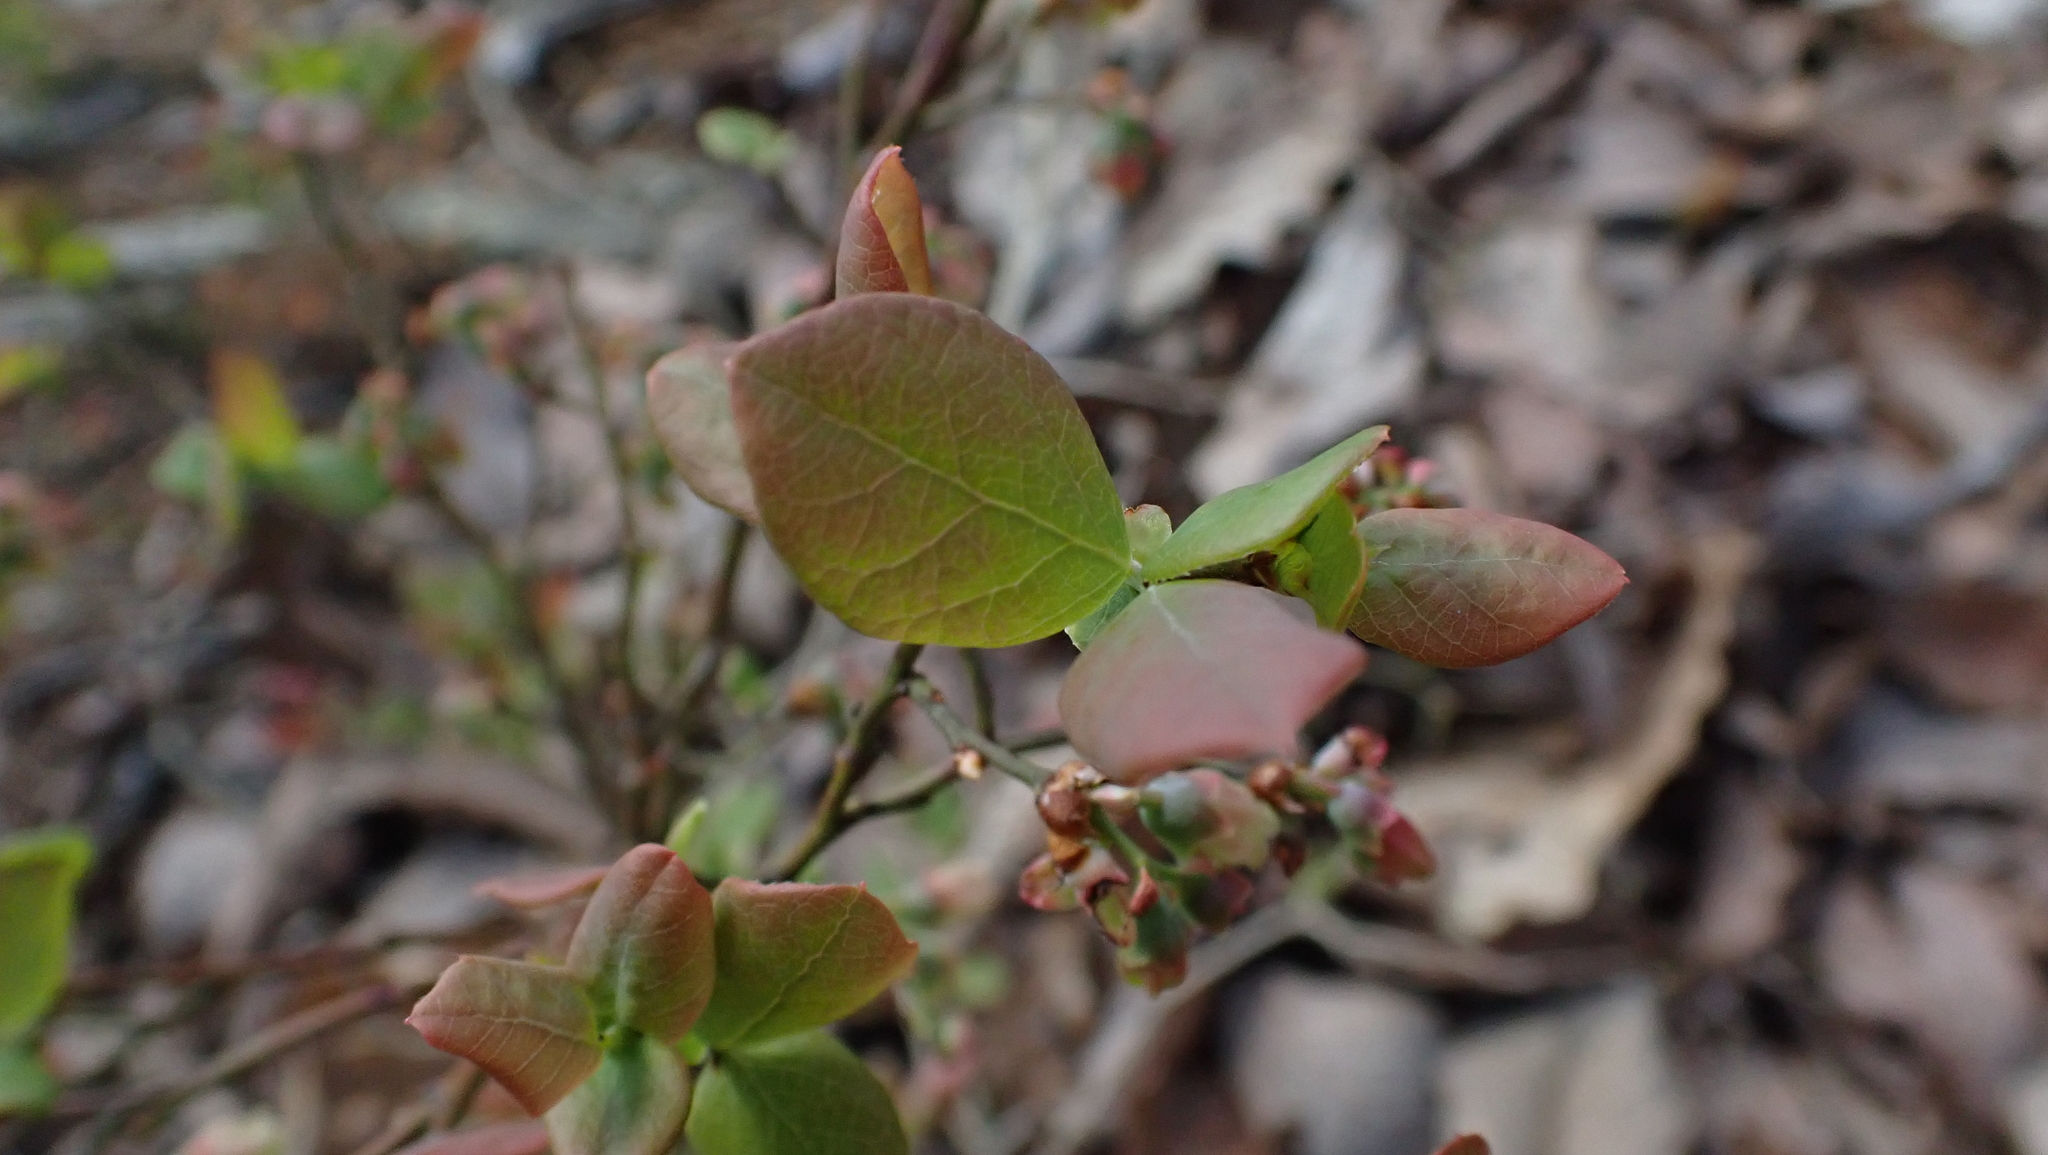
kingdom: Plantae
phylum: Tracheophyta
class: Magnoliopsida
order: Ericales
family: Ericaceae
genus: Vaccinium
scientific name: Vaccinium pallidum
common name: Blue ridge blueberry
